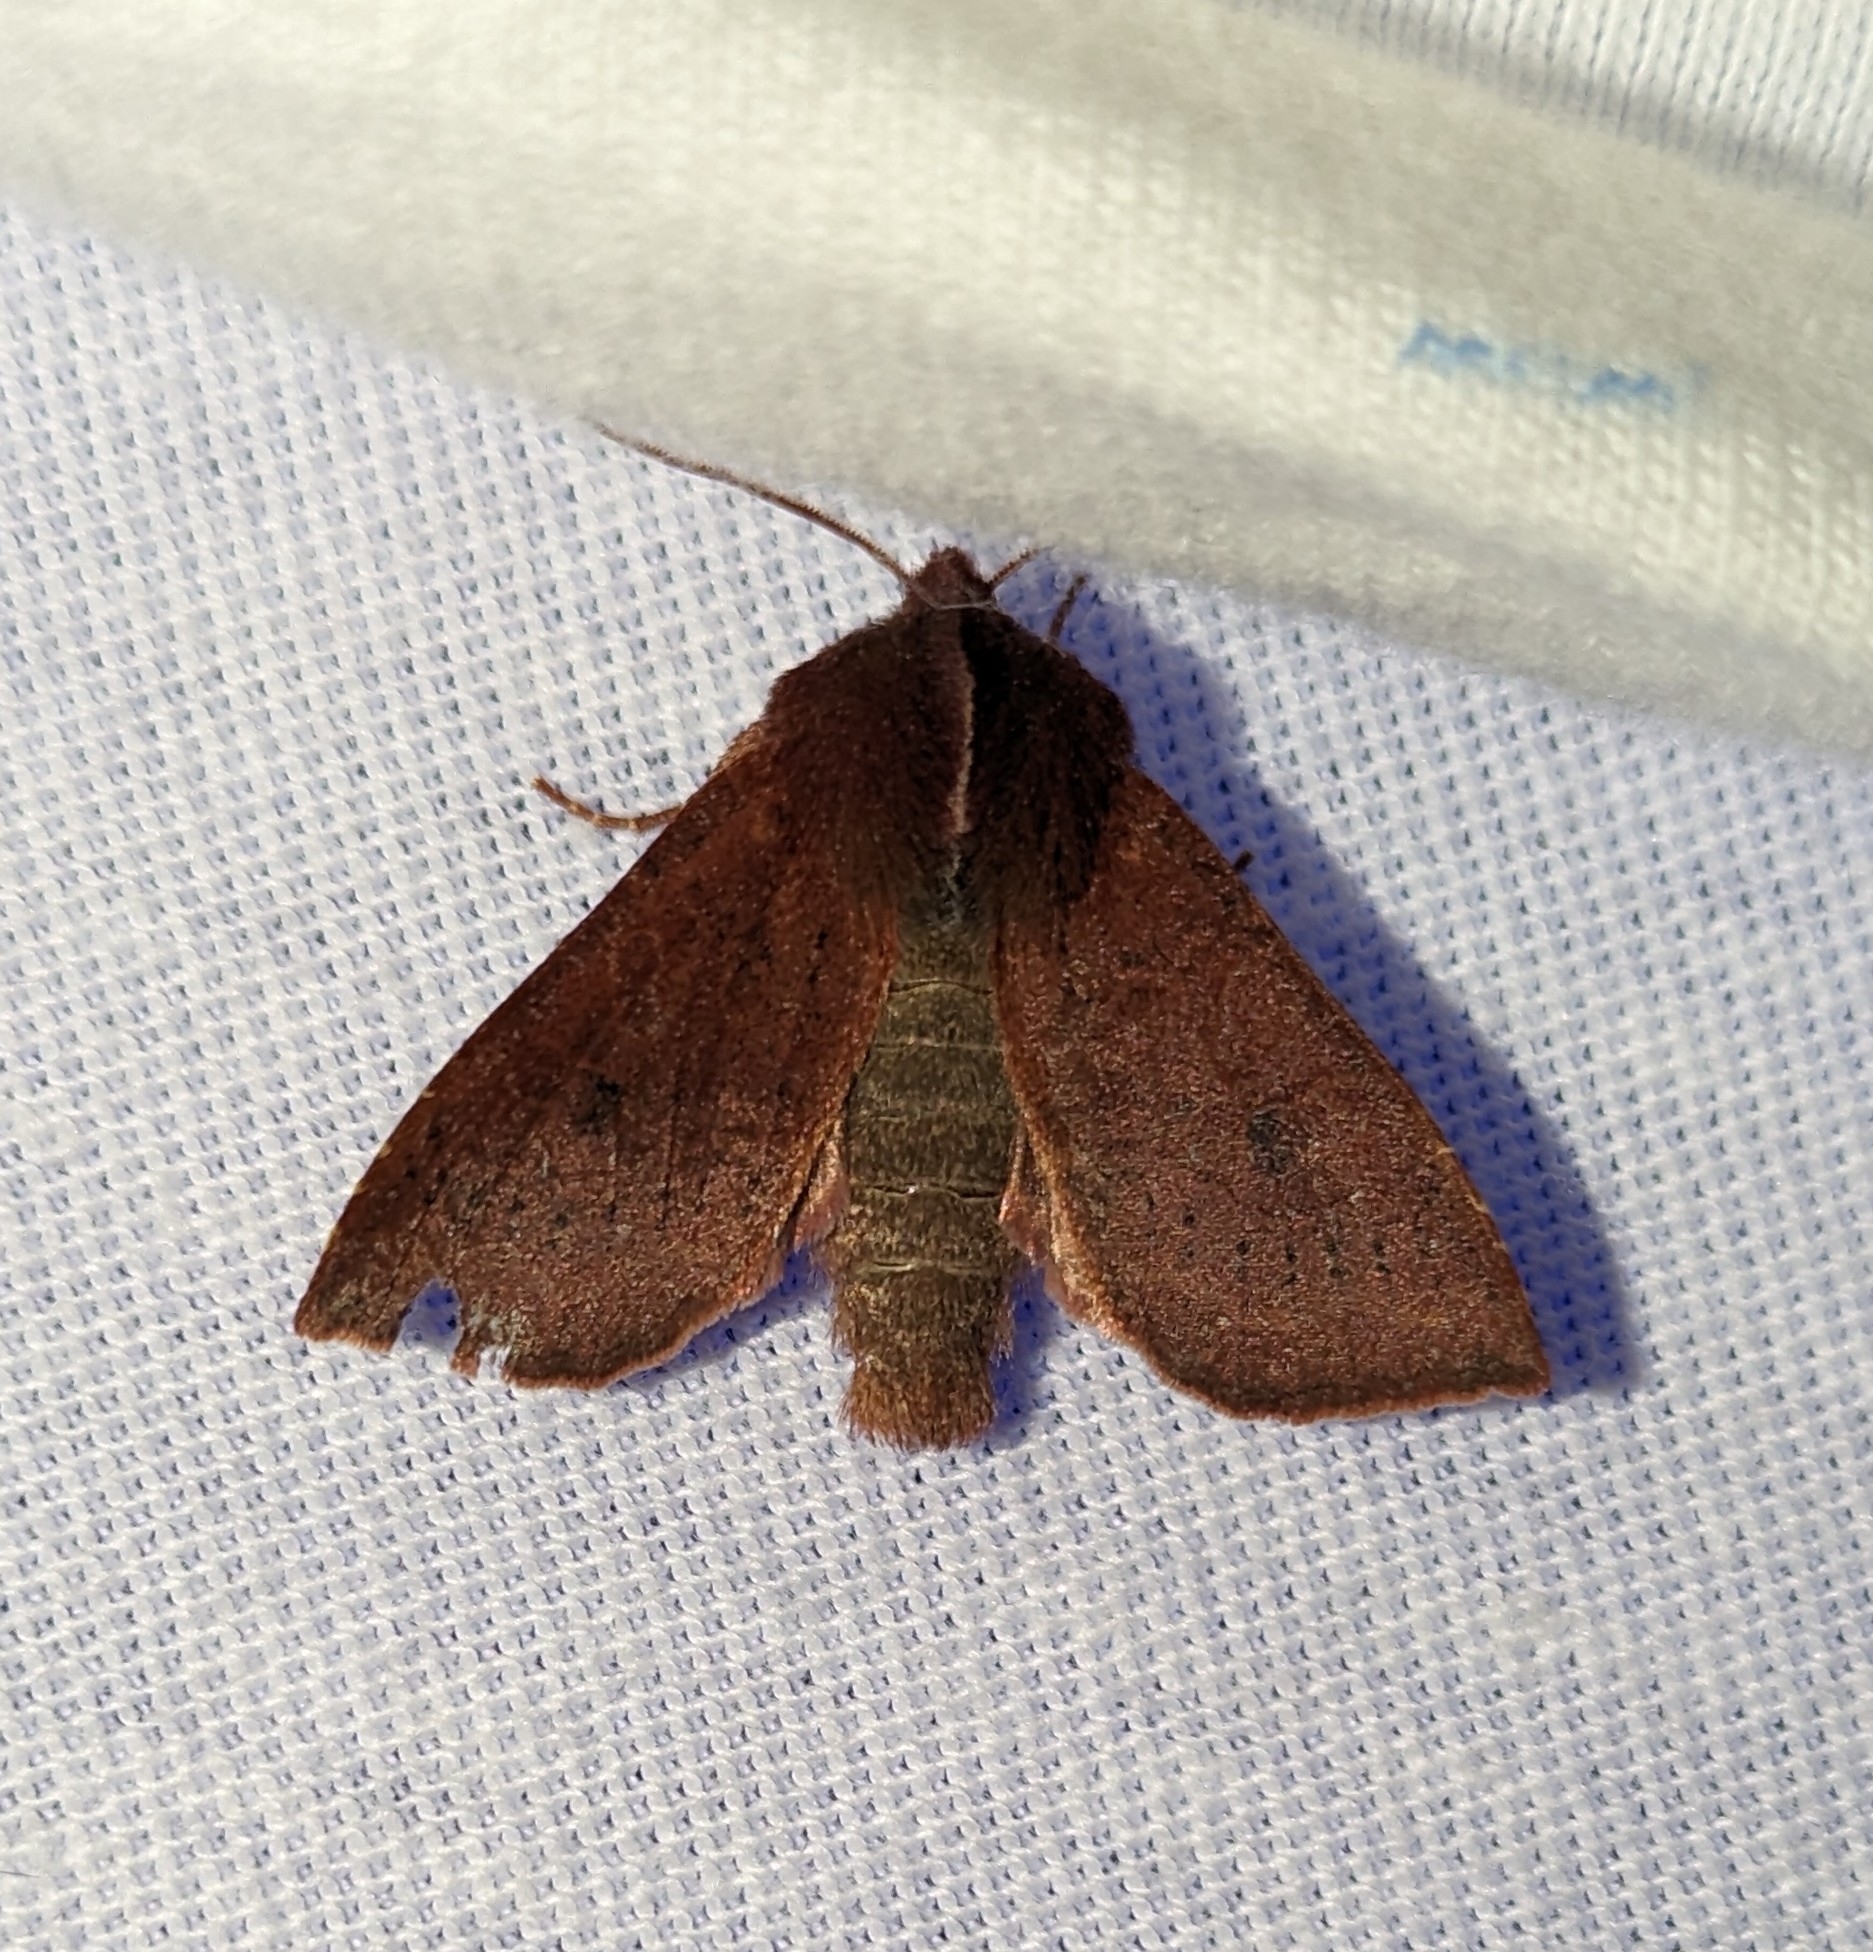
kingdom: Animalia
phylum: Arthropoda
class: Insecta
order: Lepidoptera
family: Noctuidae
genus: Orthosia
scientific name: Orthosia transparens
